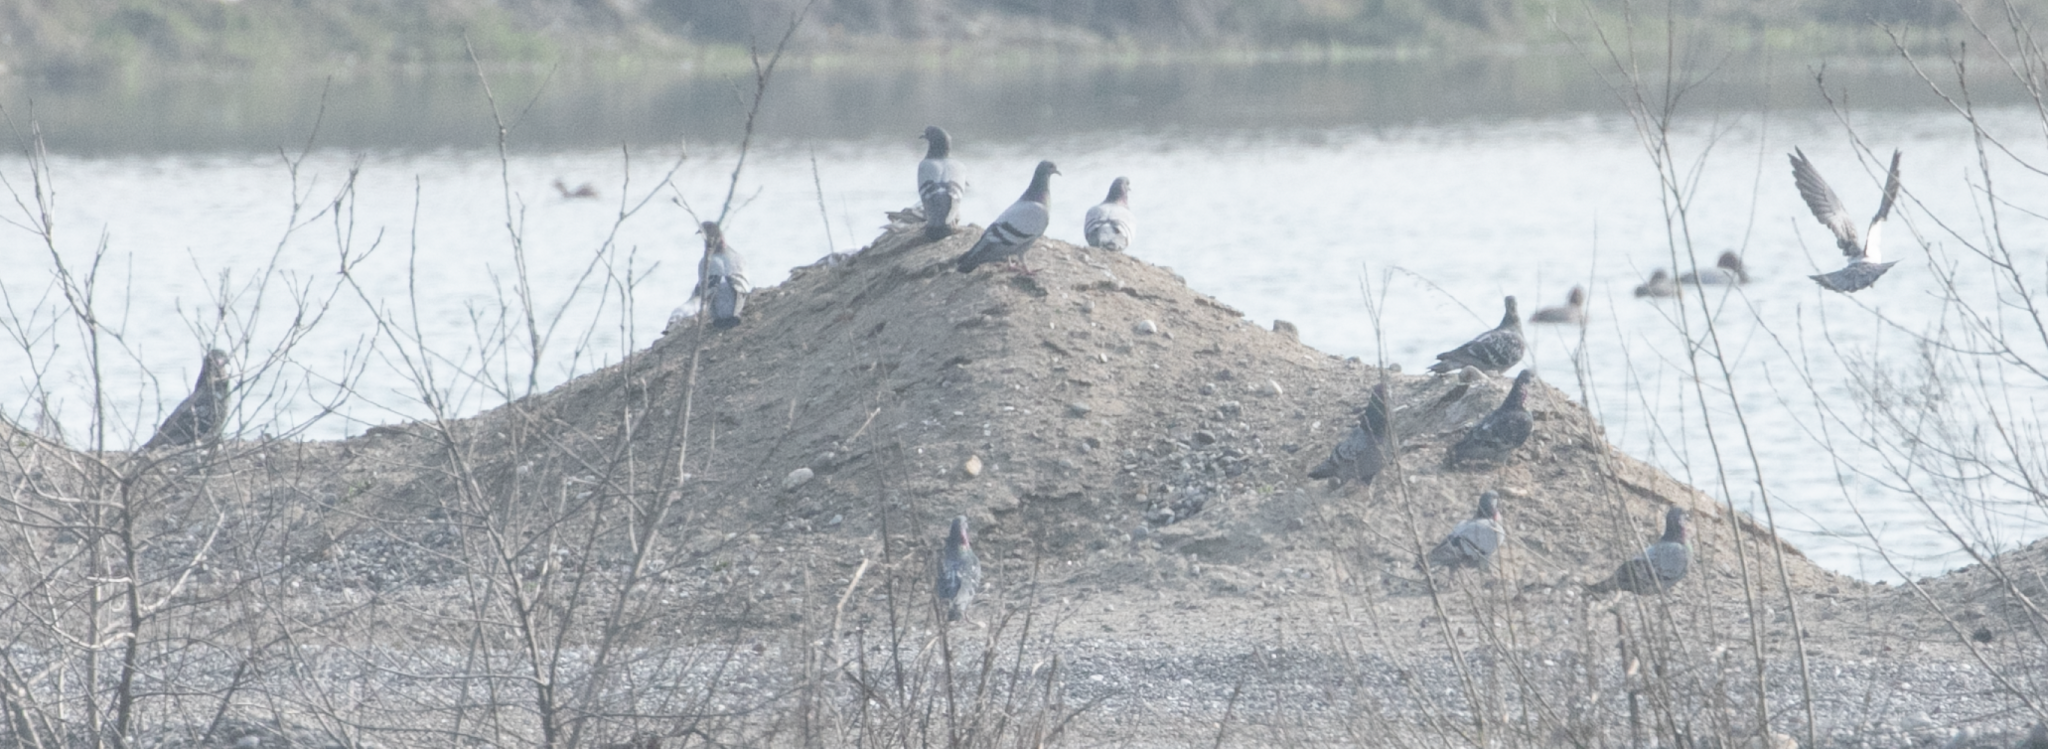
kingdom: Animalia
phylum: Chordata
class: Aves
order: Columbiformes
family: Columbidae
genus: Columba
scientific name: Columba livia
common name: Rock pigeon
